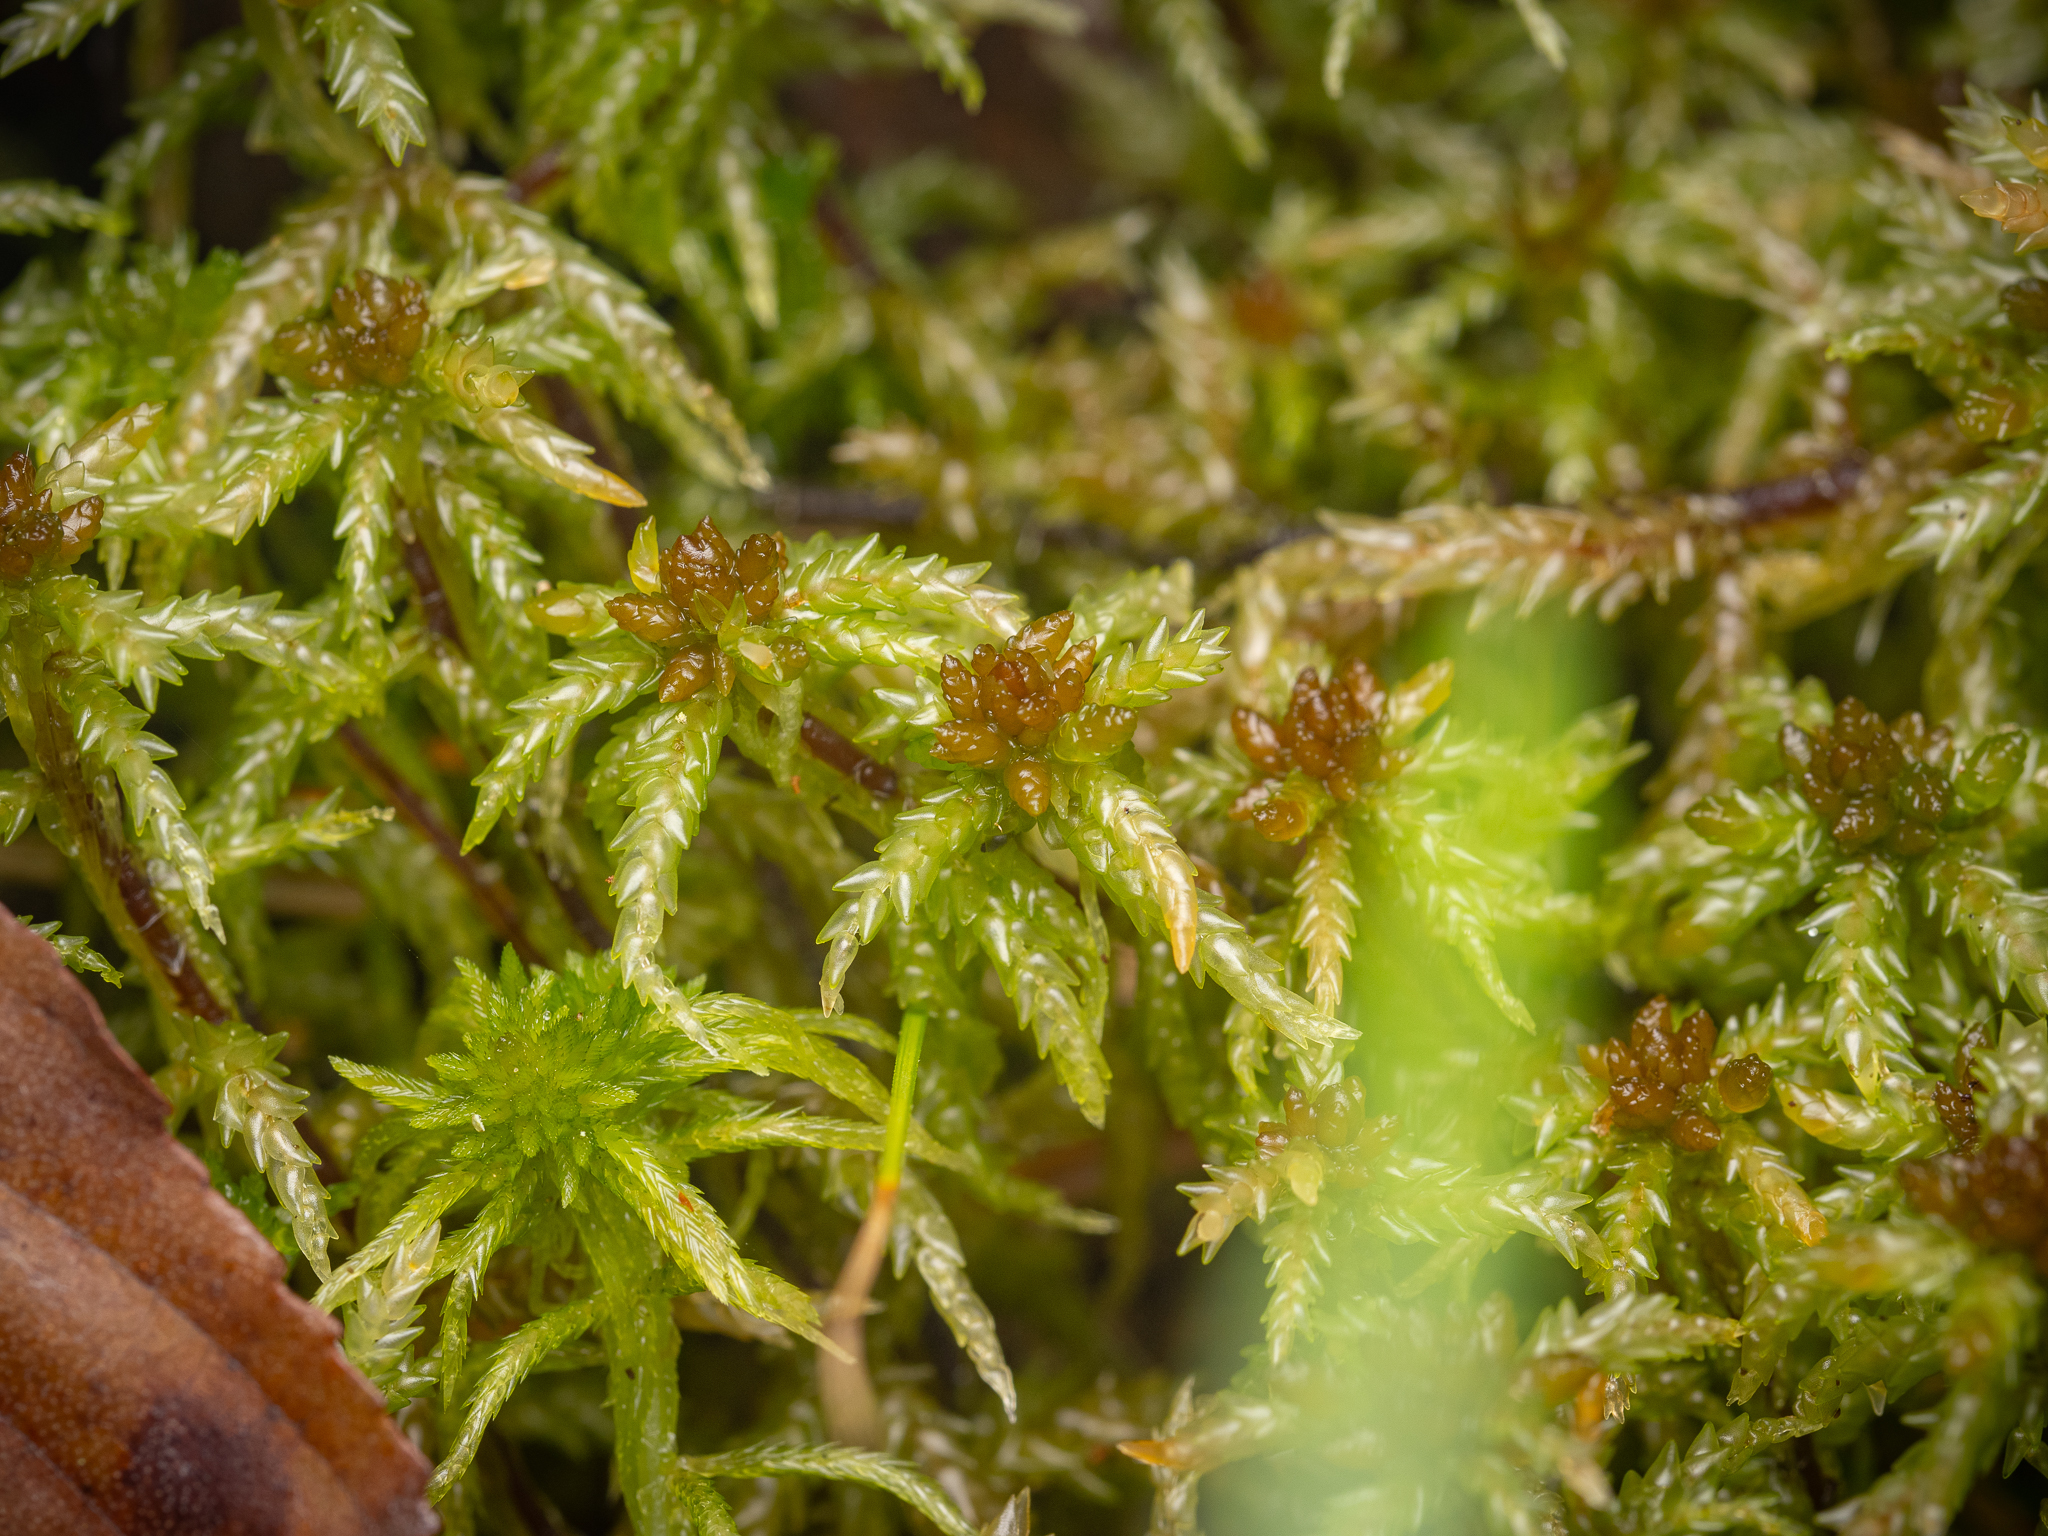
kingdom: Plantae
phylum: Bryophyta
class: Sphagnopsida
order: Sphagnales
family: Sphagnaceae
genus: Sphagnum
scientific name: Sphagnum palustre
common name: Blunt-leaved bog-moss
